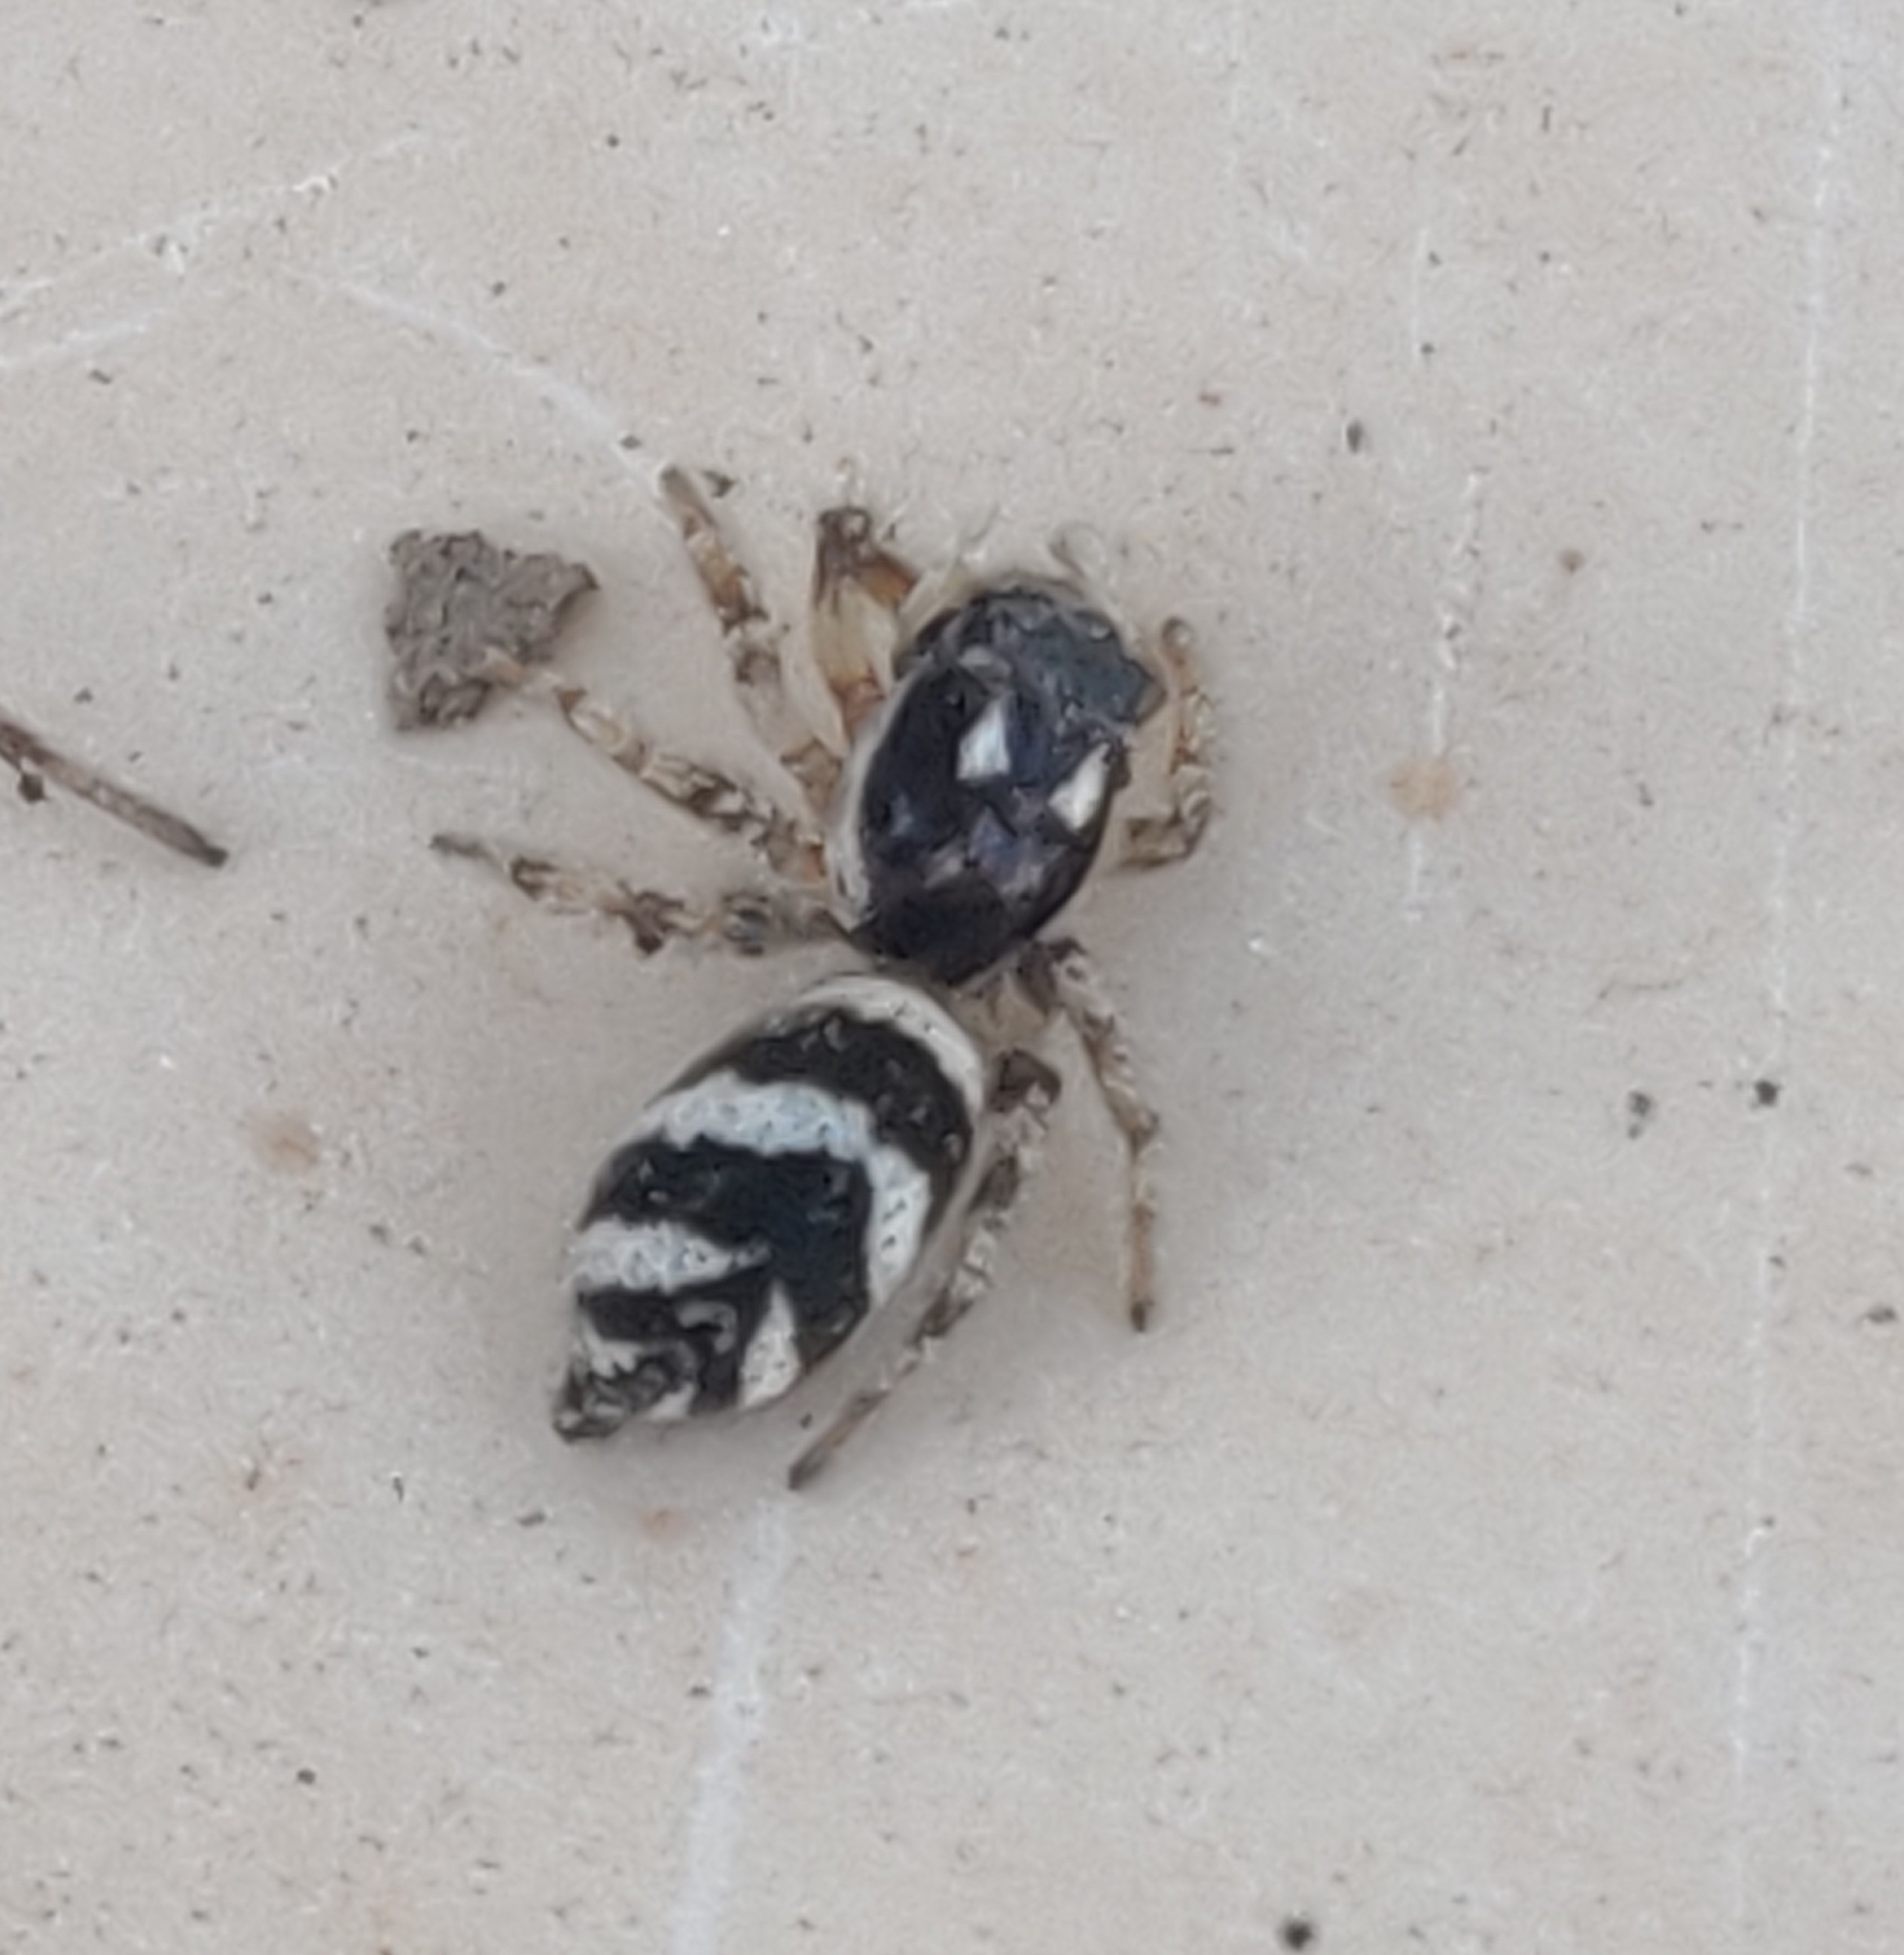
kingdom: Animalia
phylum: Arthropoda
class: Arachnida
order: Araneae
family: Salticidae
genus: Salticus
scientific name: Salticus scenicus
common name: Zebra jumper
